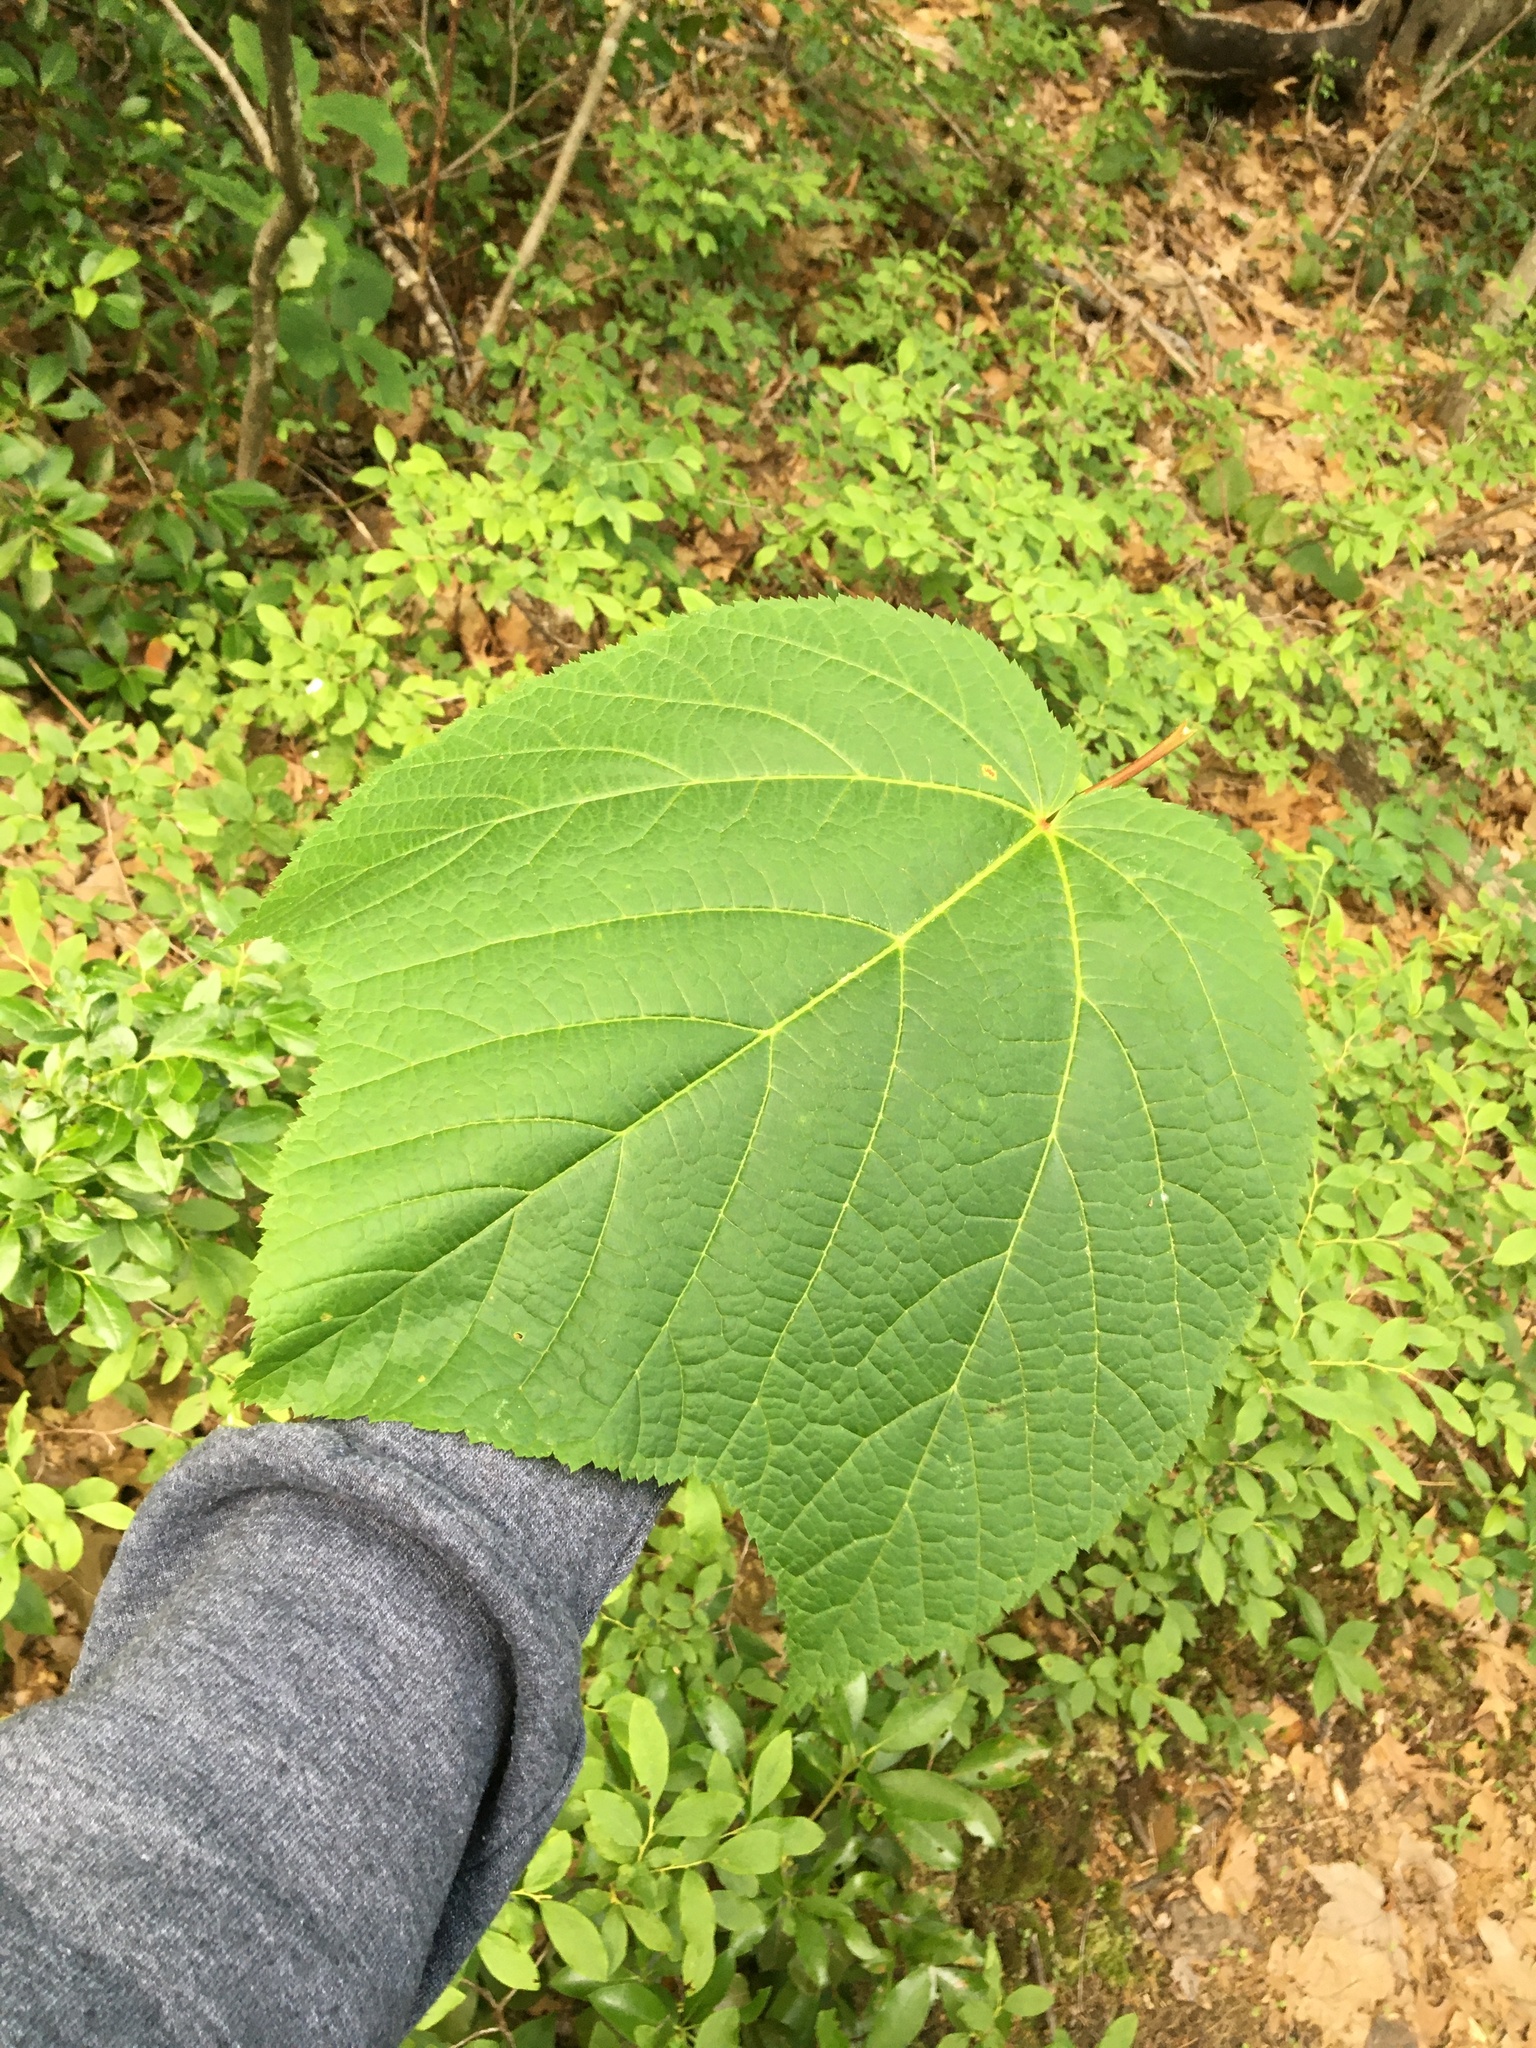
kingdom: Plantae
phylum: Tracheophyta
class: Magnoliopsida
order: Sapindales
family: Sapindaceae
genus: Acer
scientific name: Acer pensylvanicum
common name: Moosewood
